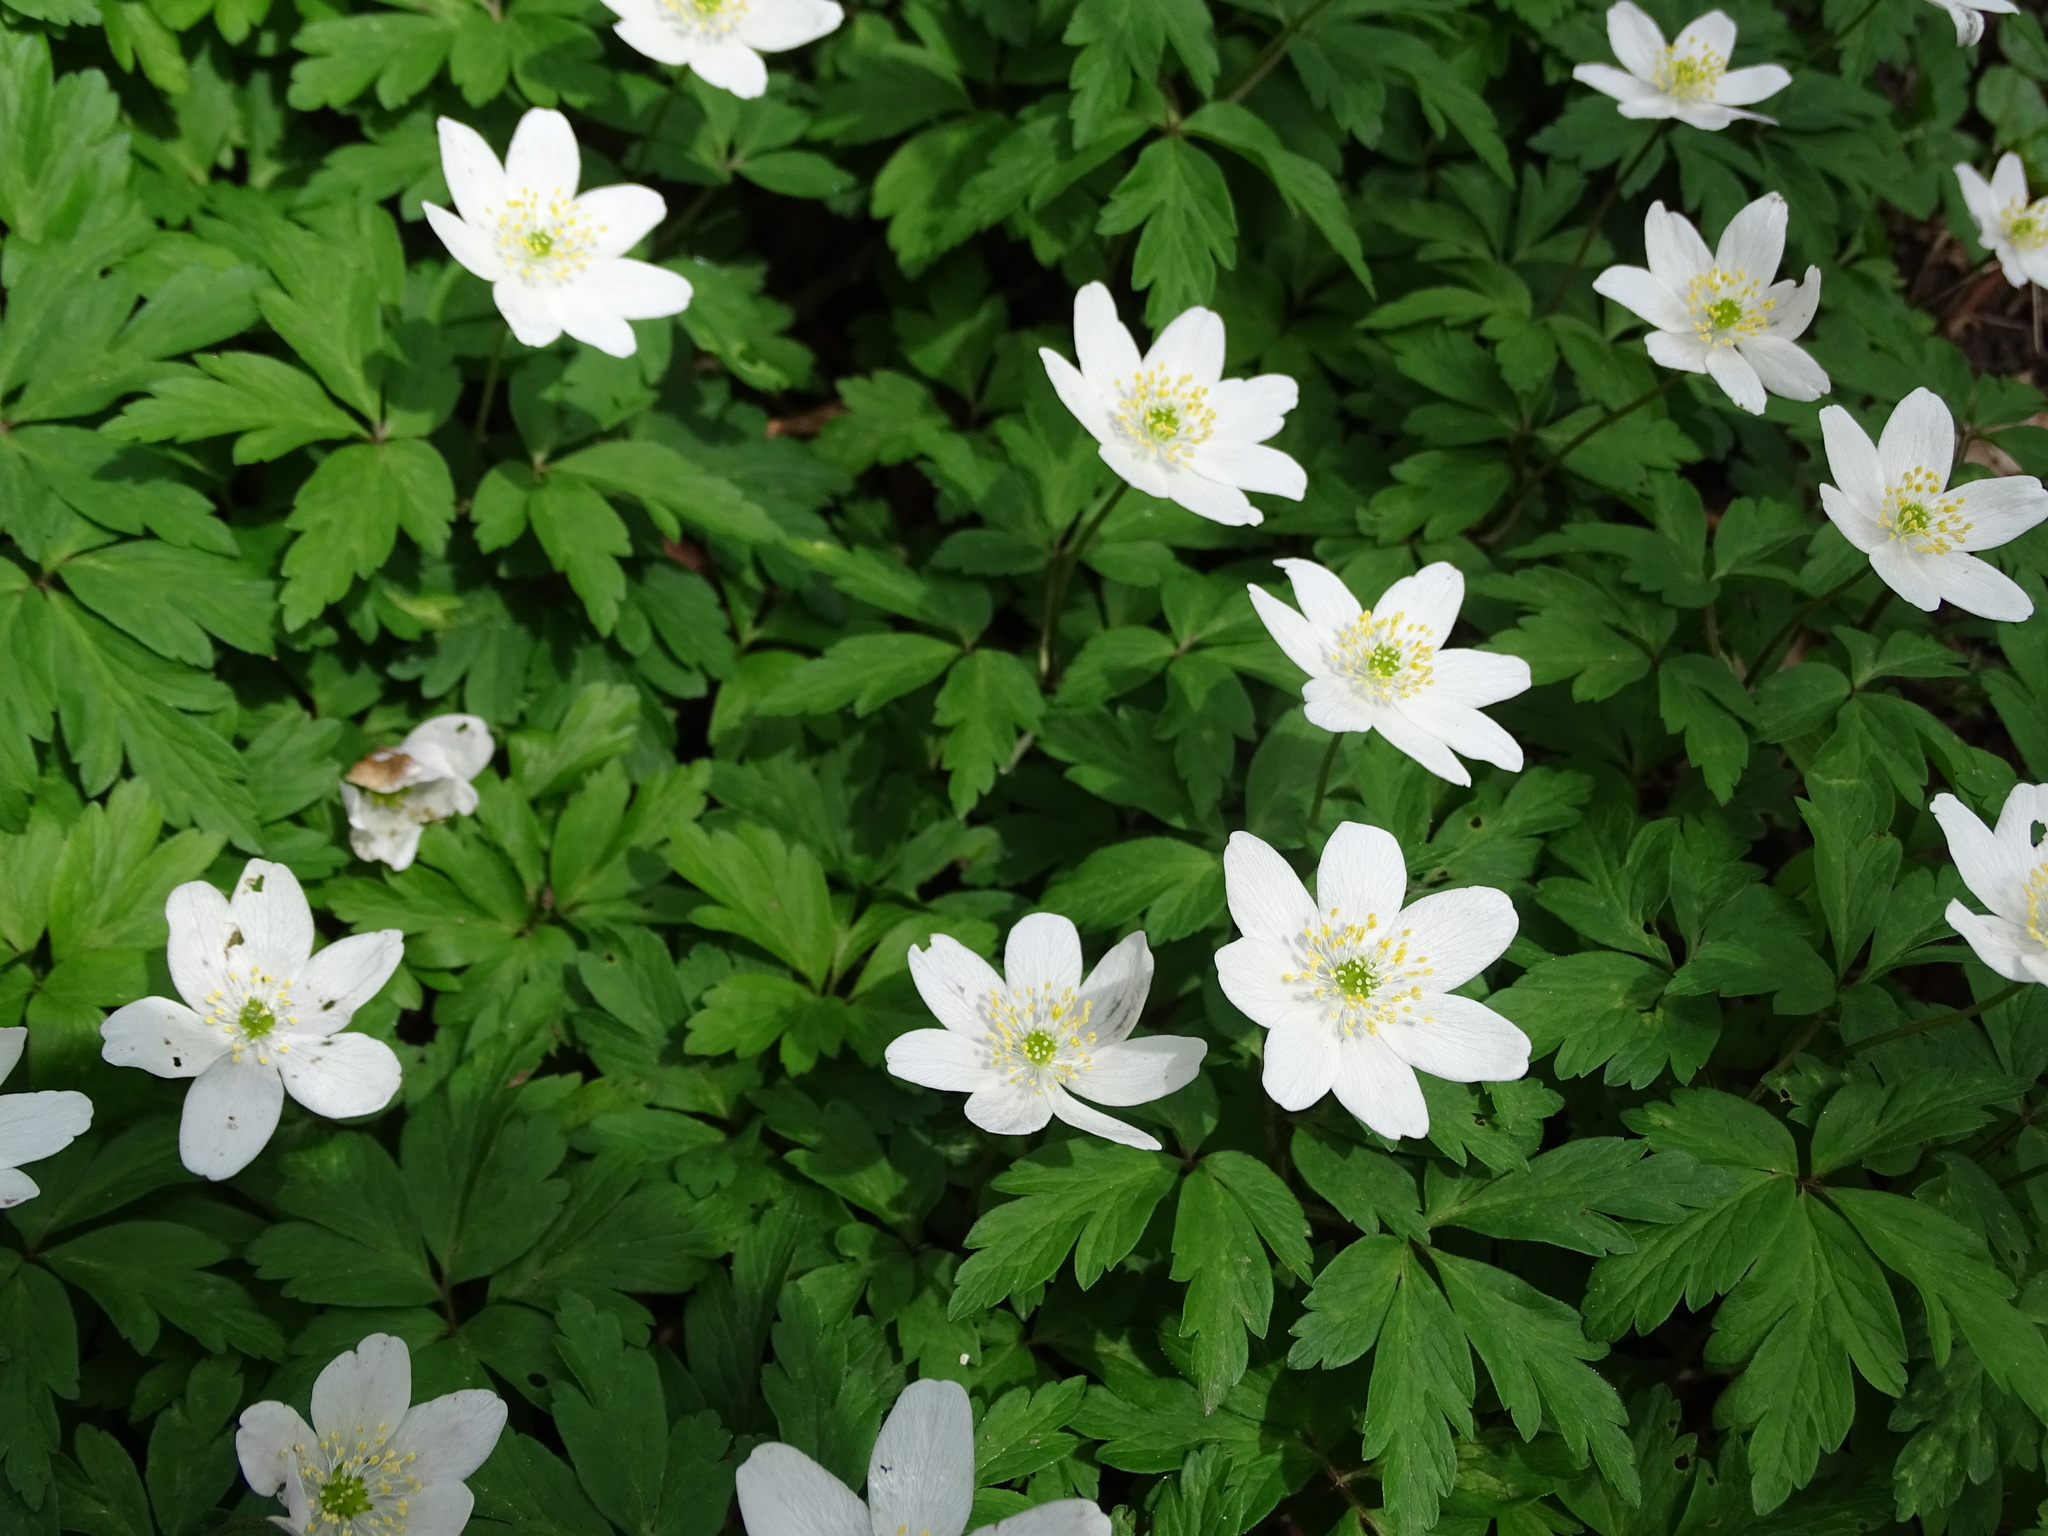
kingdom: Plantae
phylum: Tracheophyta
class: Magnoliopsida
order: Ranunculales
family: Ranunculaceae
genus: Anemone
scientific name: Anemone nemorosa
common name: Wood anemone
